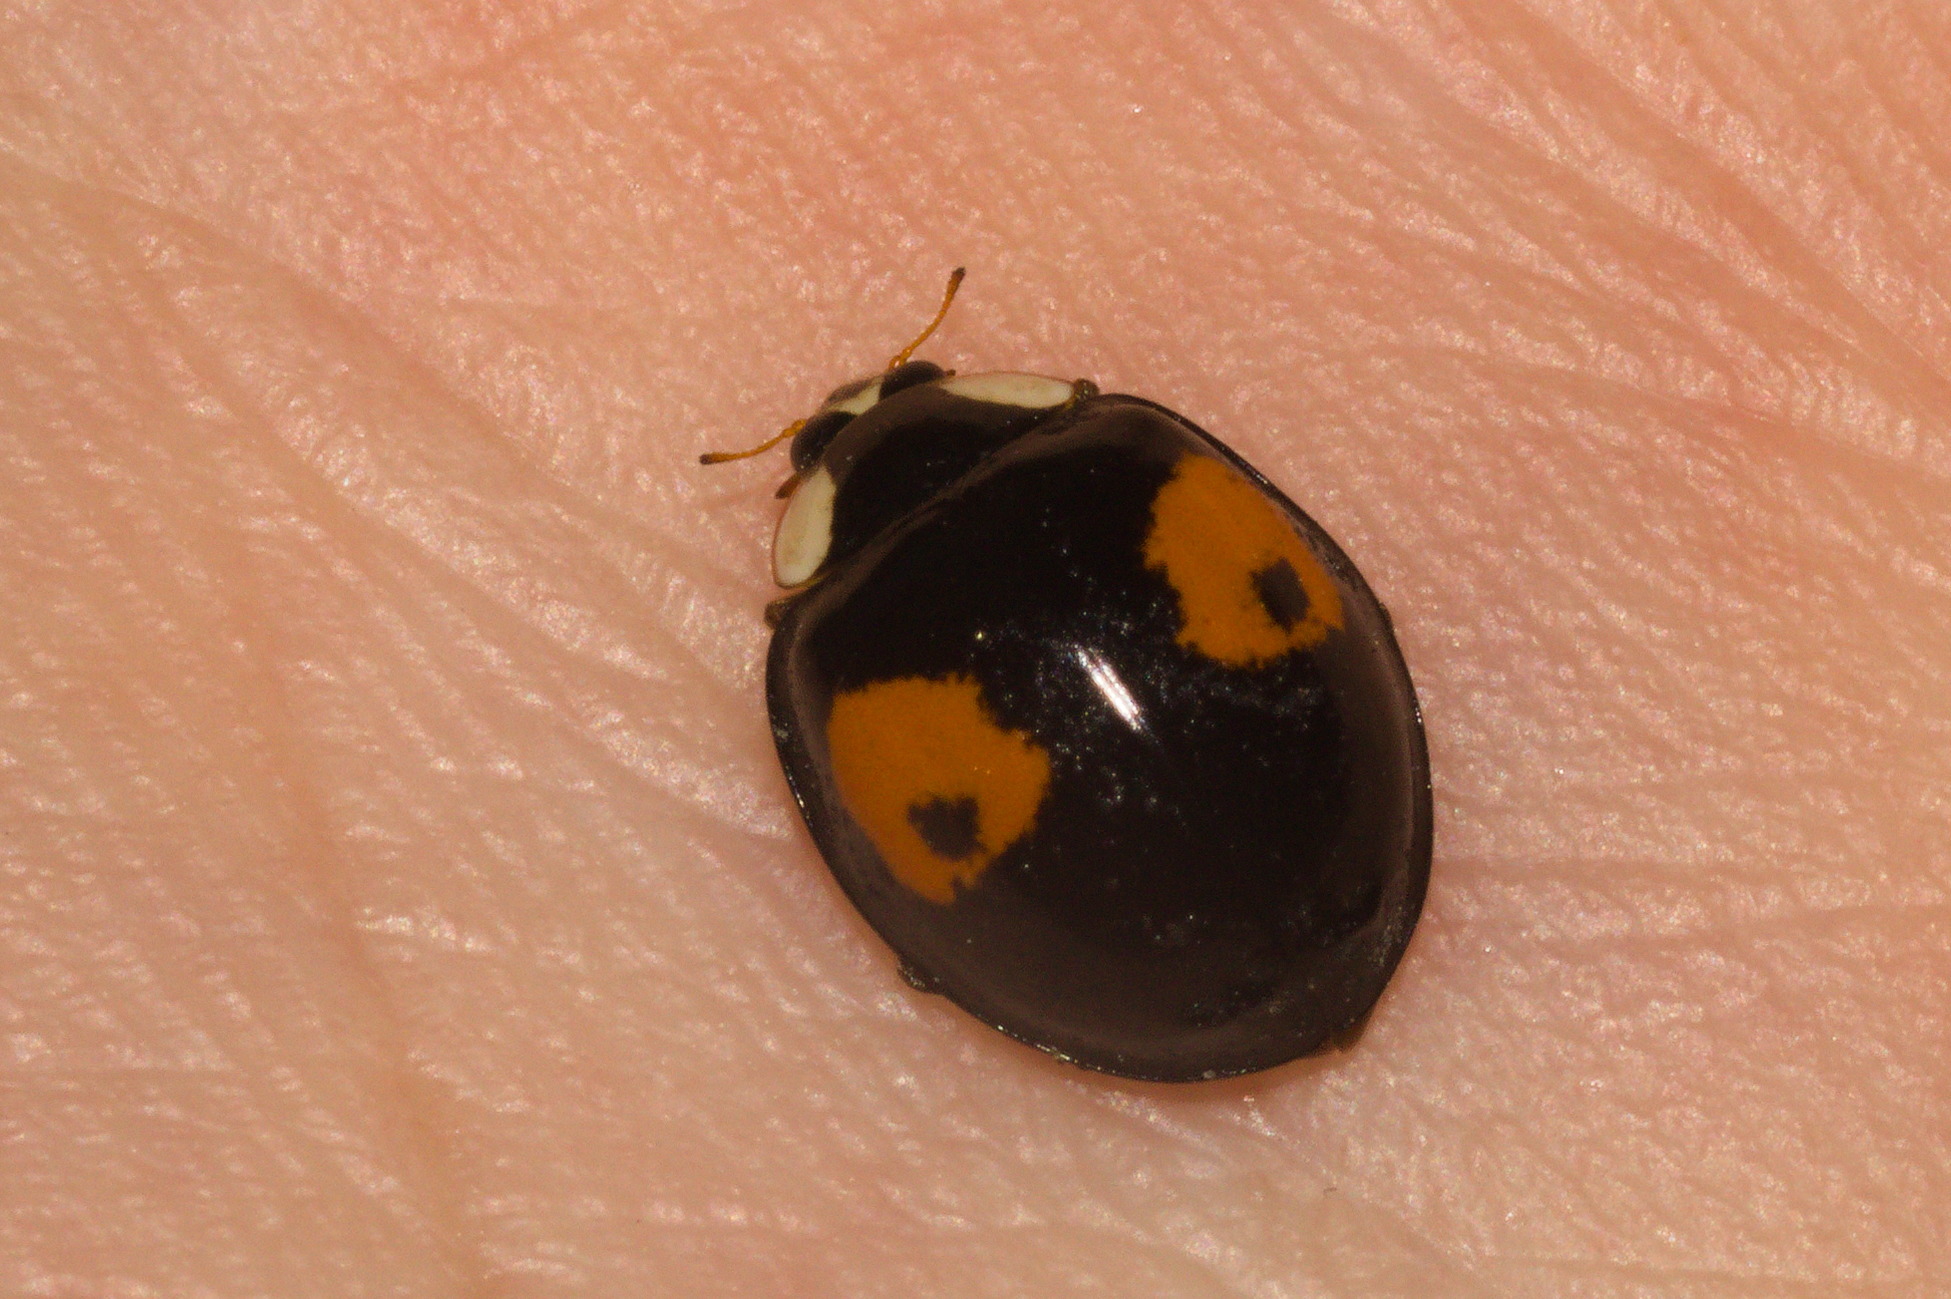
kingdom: Animalia
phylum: Arthropoda
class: Insecta
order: Coleoptera
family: Coccinellidae
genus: Harmonia
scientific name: Harmonia axyridis
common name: Harlequin ladybird
